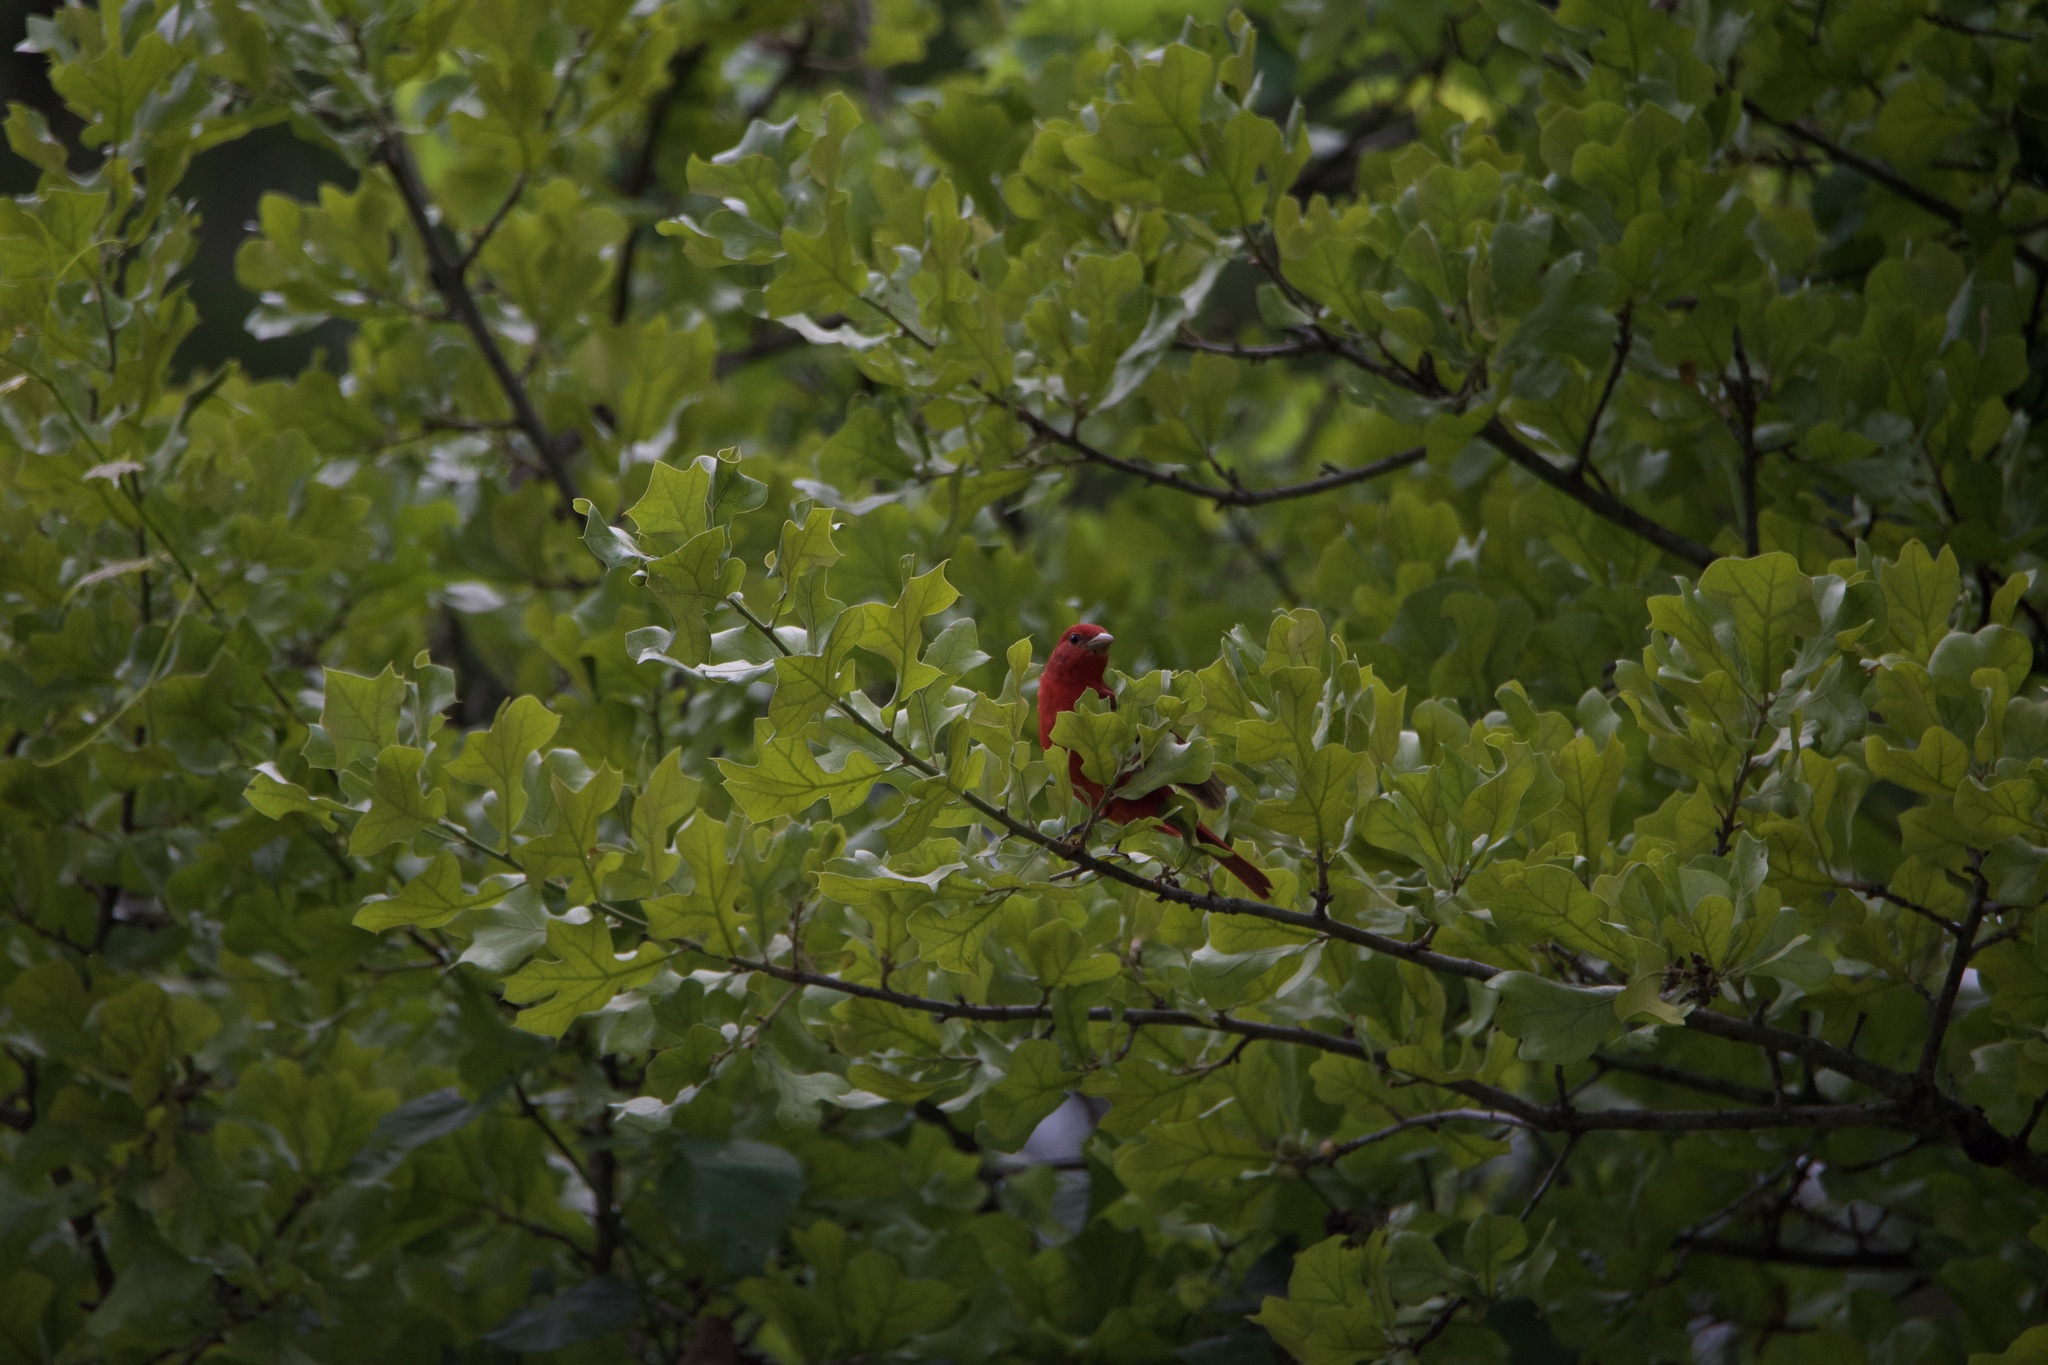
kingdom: Animalia
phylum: Chordata
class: Aves
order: Passeriformes
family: Cardinalidae
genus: Piranga
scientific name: Piranga rubra
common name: Summer tanager
